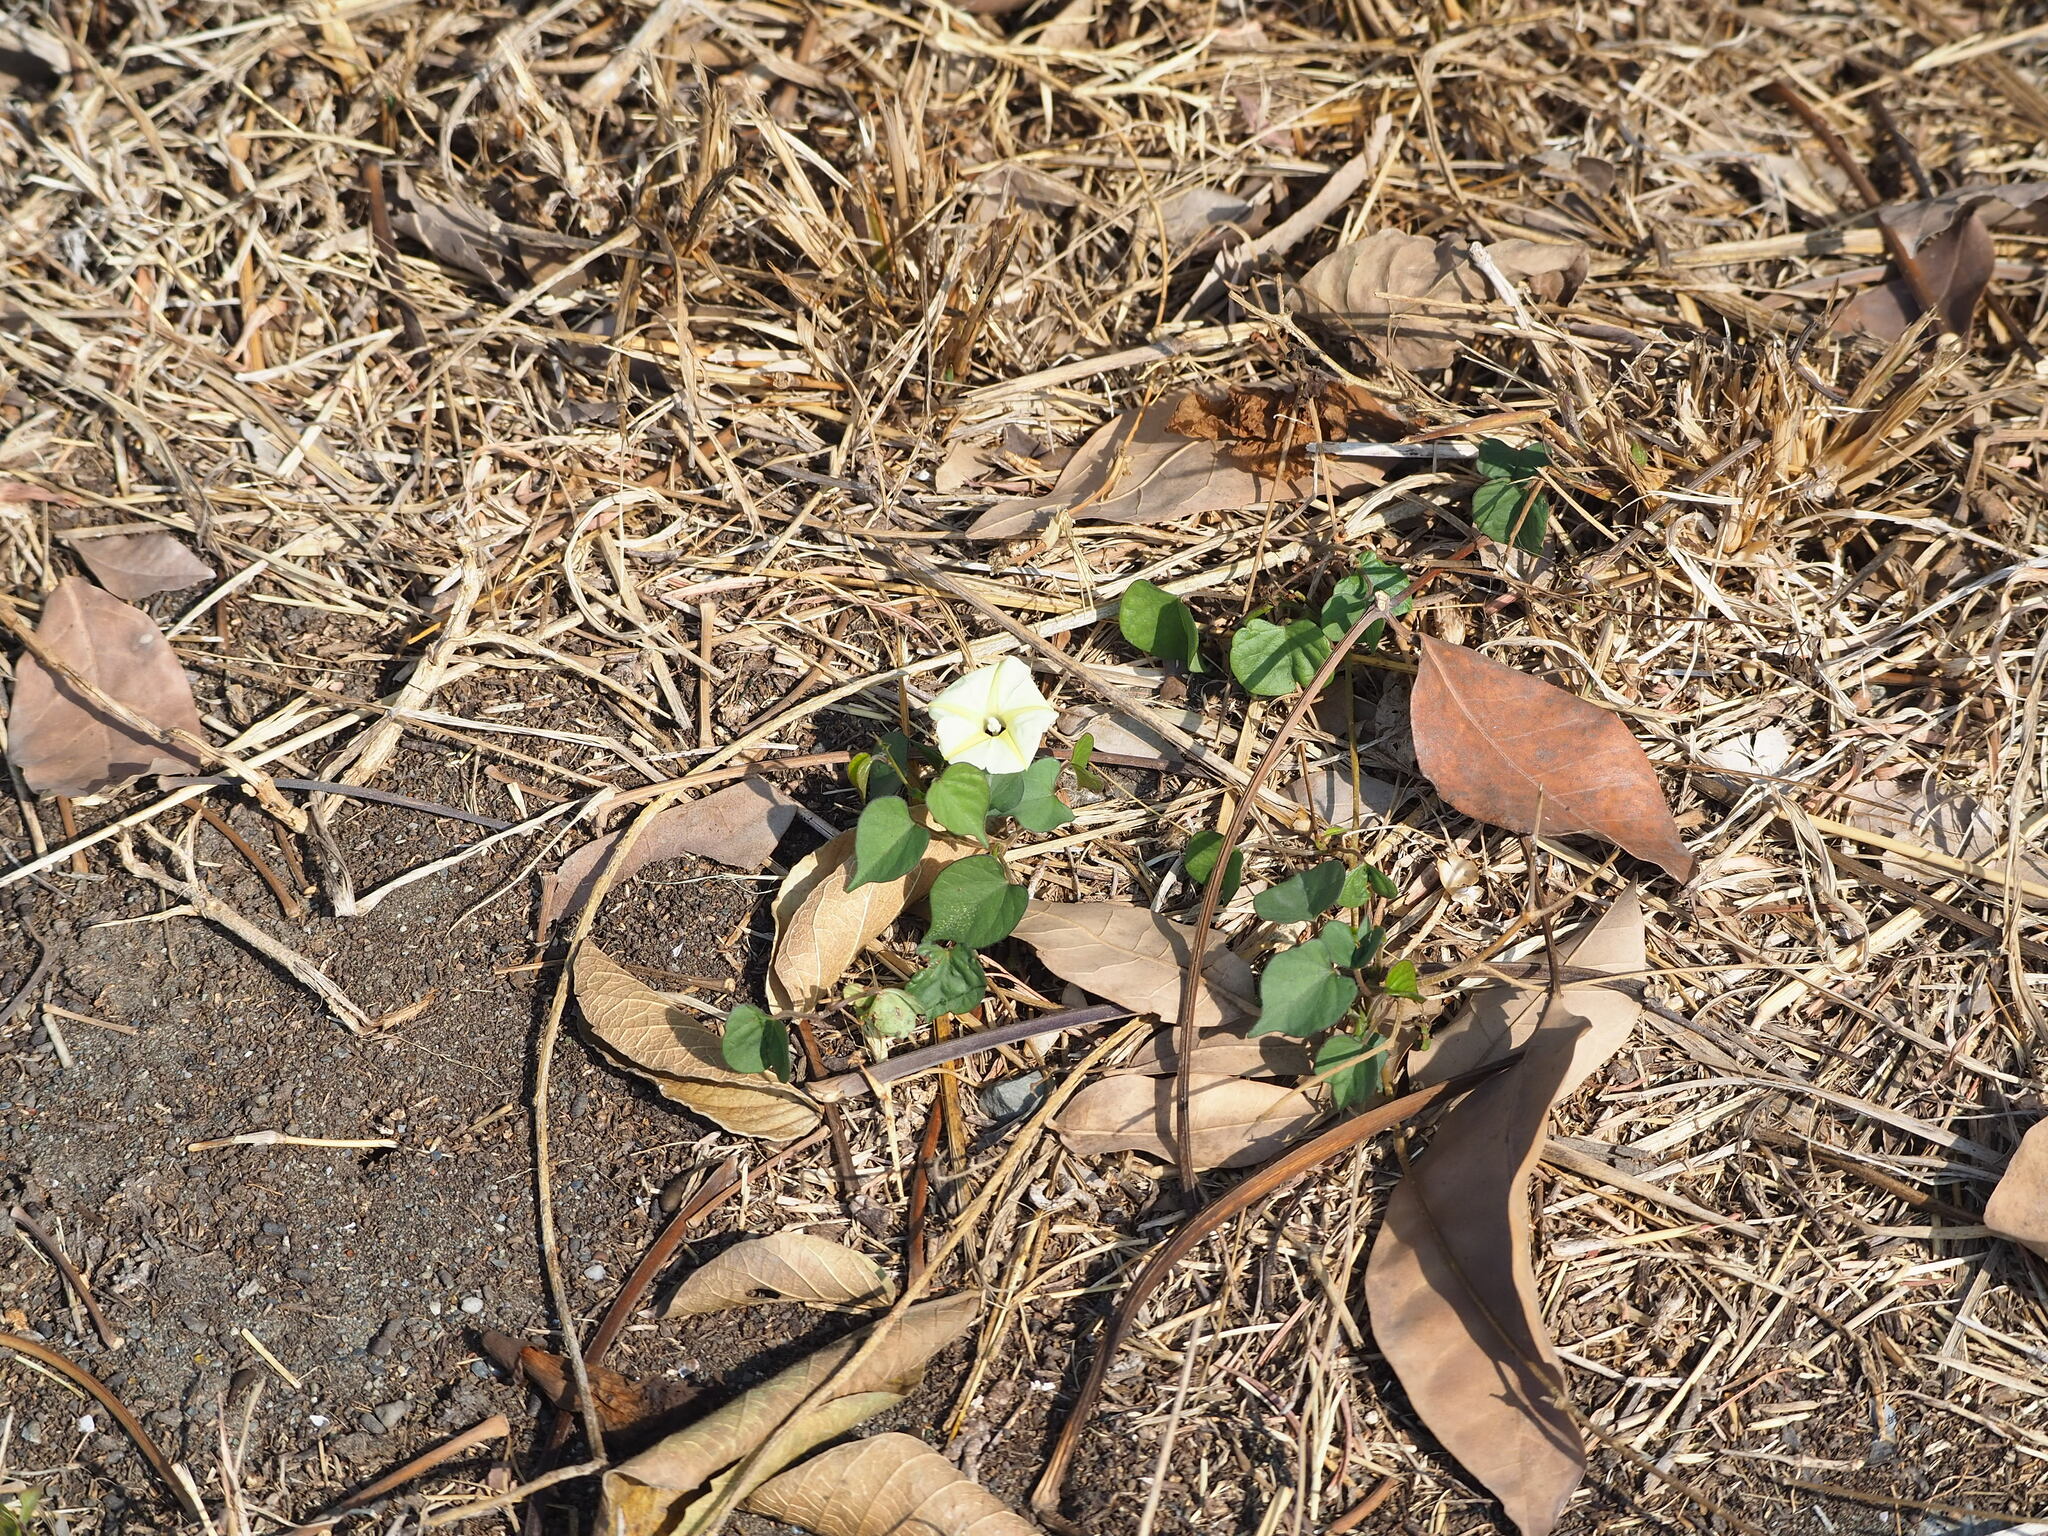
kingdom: Plantae
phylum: Tracheophyta
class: Magnoliopsida
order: Solanales
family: Convolvulaceae
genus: Ipomoea
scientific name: Ipomoea obscura
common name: Obscure morning-glory
